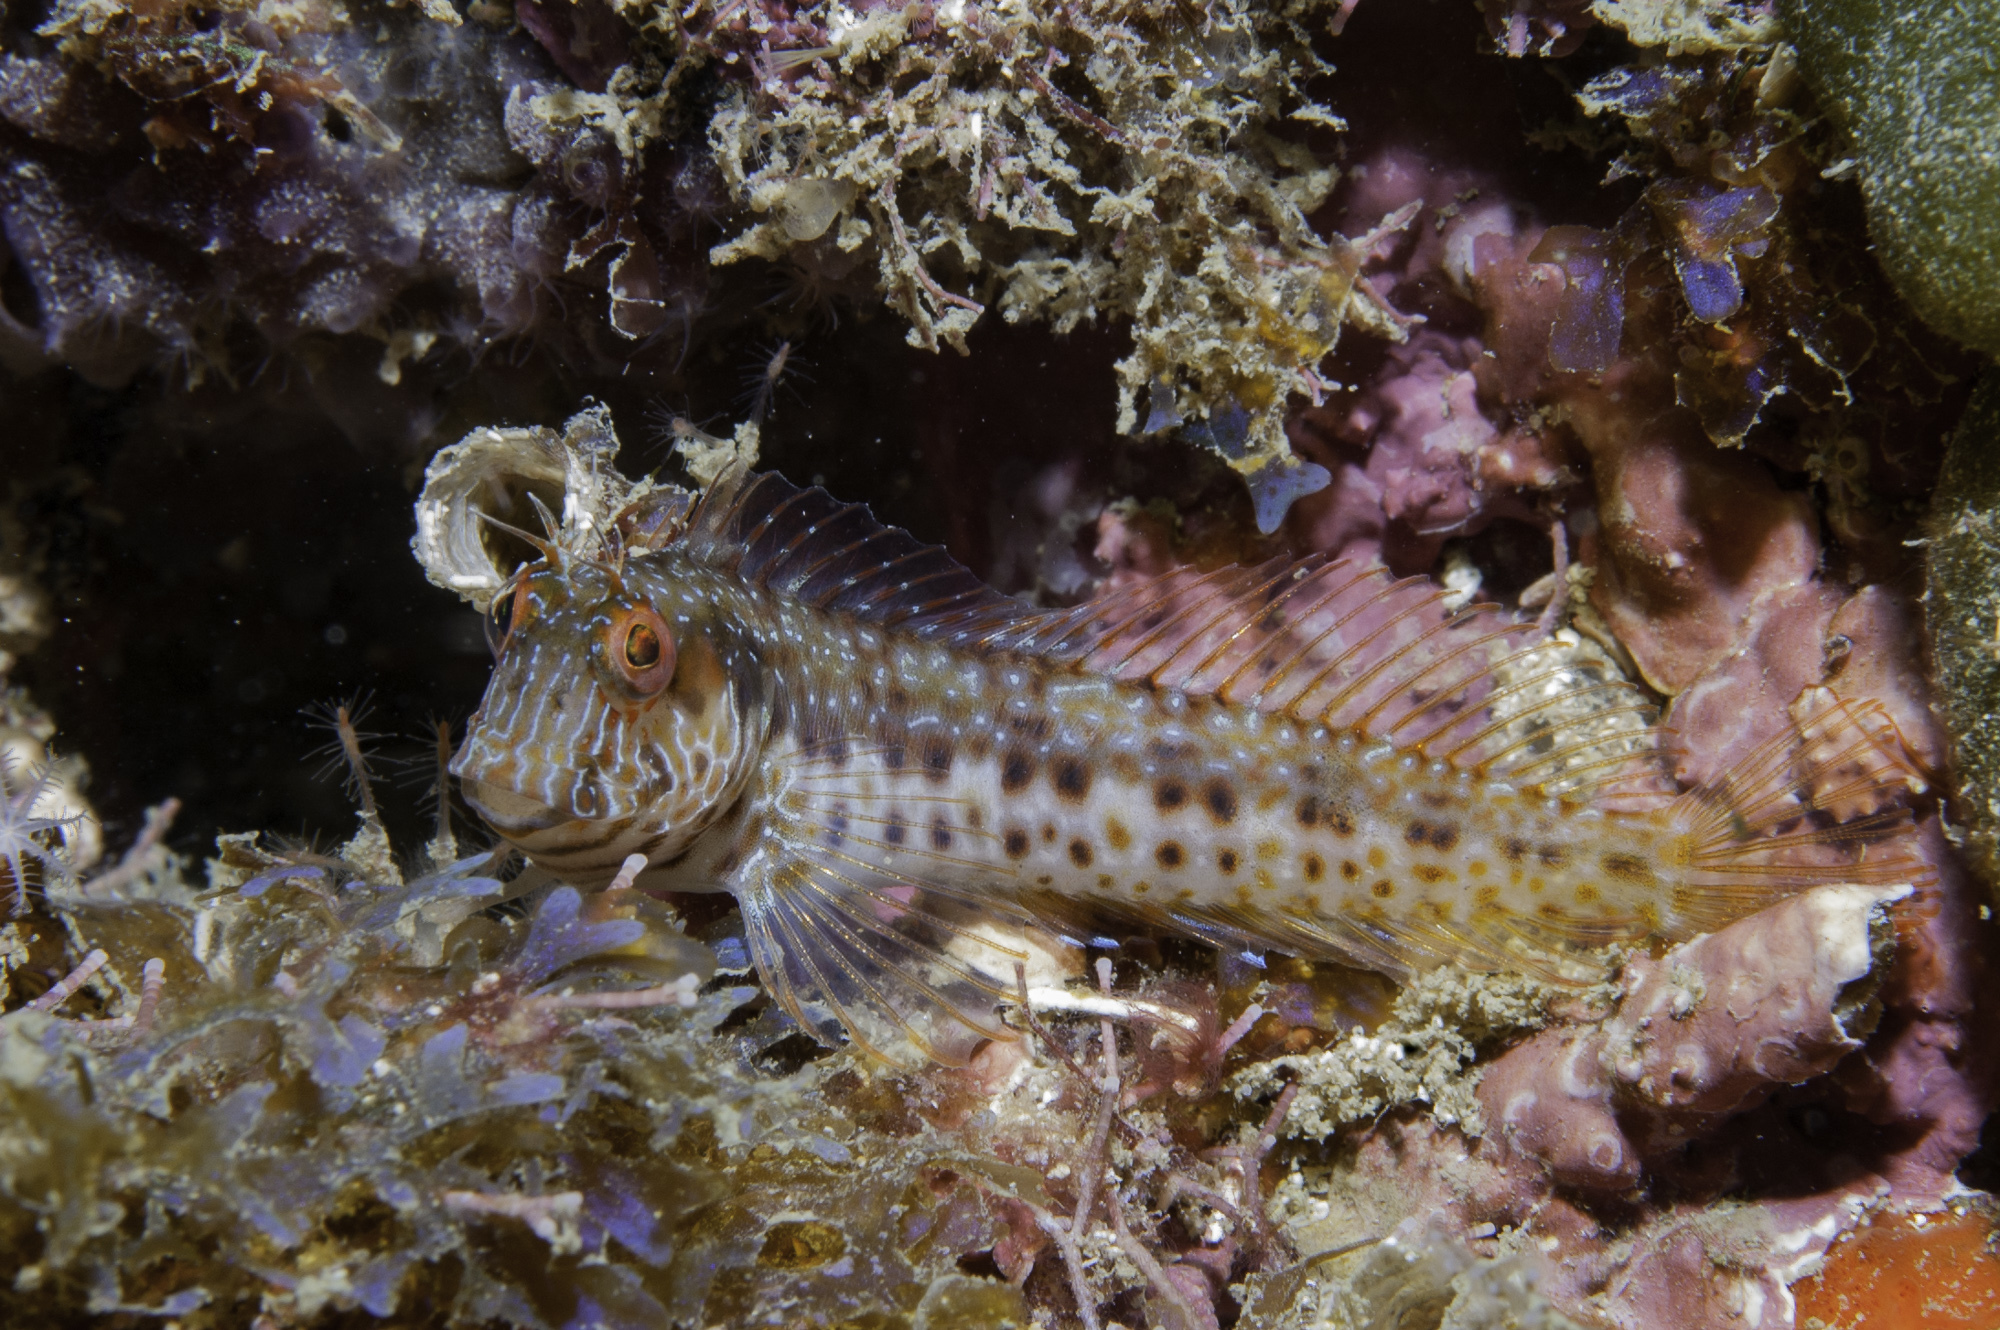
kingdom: Animalia
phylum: Chordata
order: Perciformes
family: Blenniidae
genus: Parablennius
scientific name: Parablennius marmoreus
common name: Seaweed blenny
